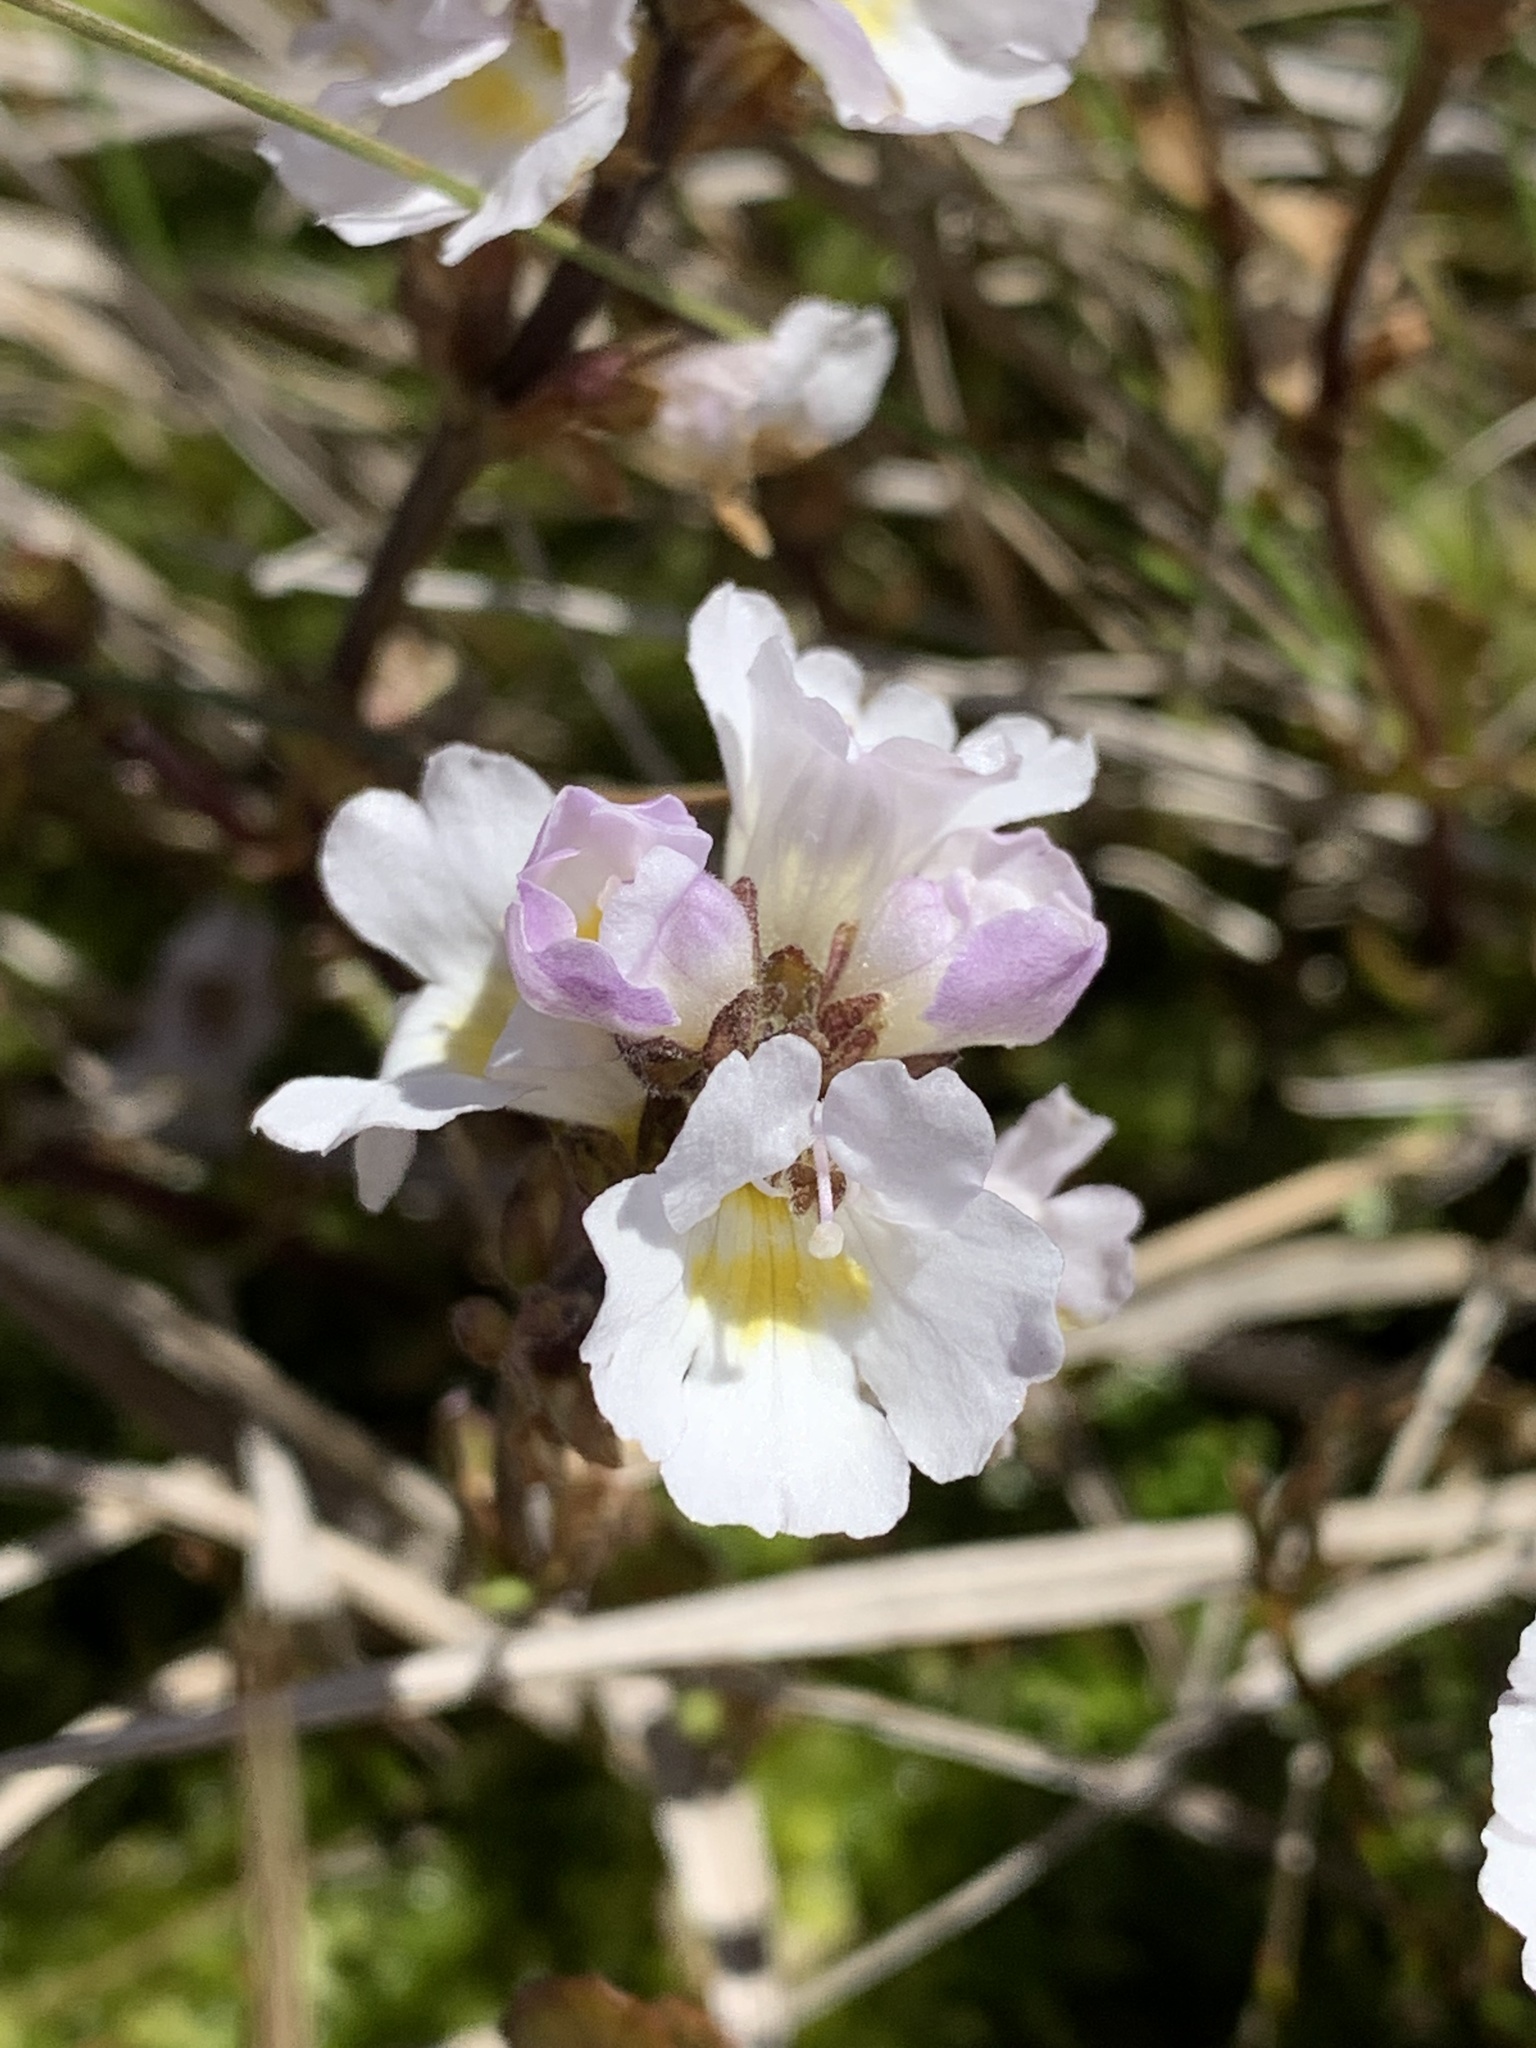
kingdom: Plantae
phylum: Tracheophyta
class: Magnoliopsida
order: Lamiales
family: Orobanchaceae
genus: Euphrasia
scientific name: Euphrasia collina
